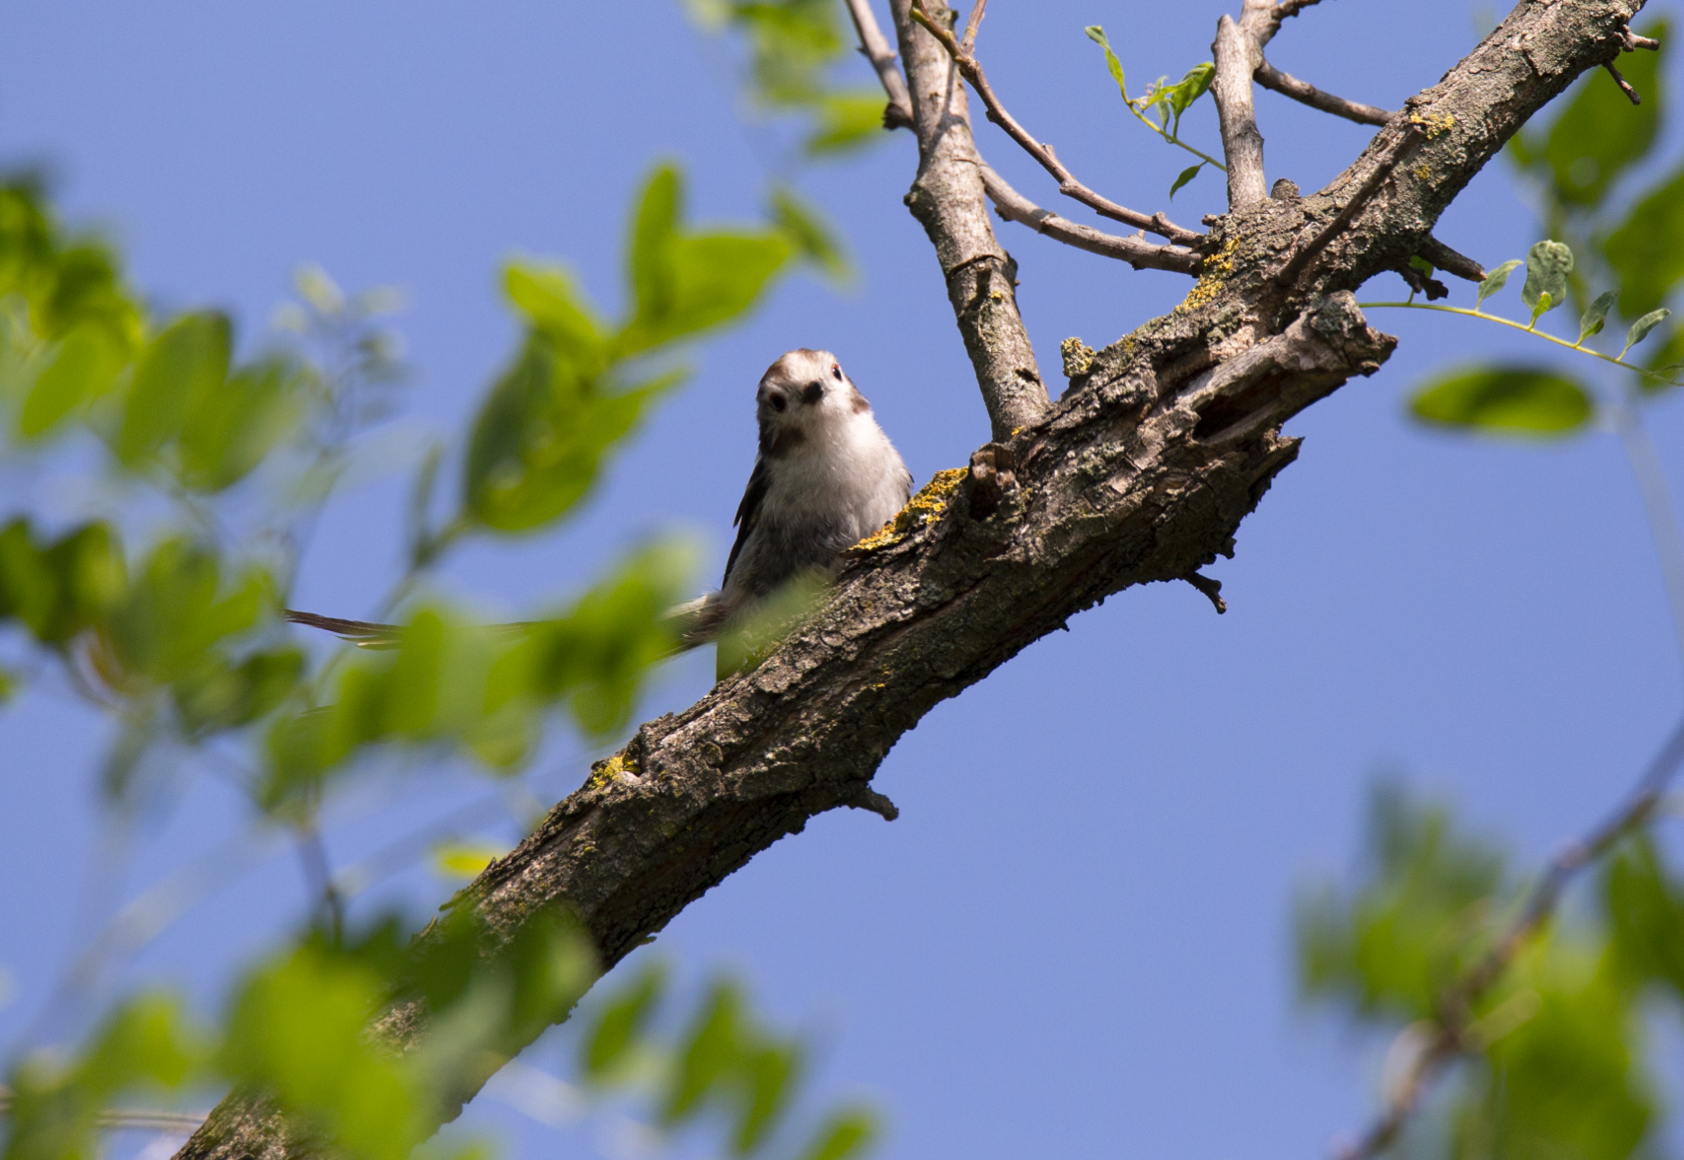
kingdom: Animalia
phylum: Chordata
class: Aves
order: Passeriformes
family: Aegithalidae
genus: Aegithalos
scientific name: Aegithalos caudatus
